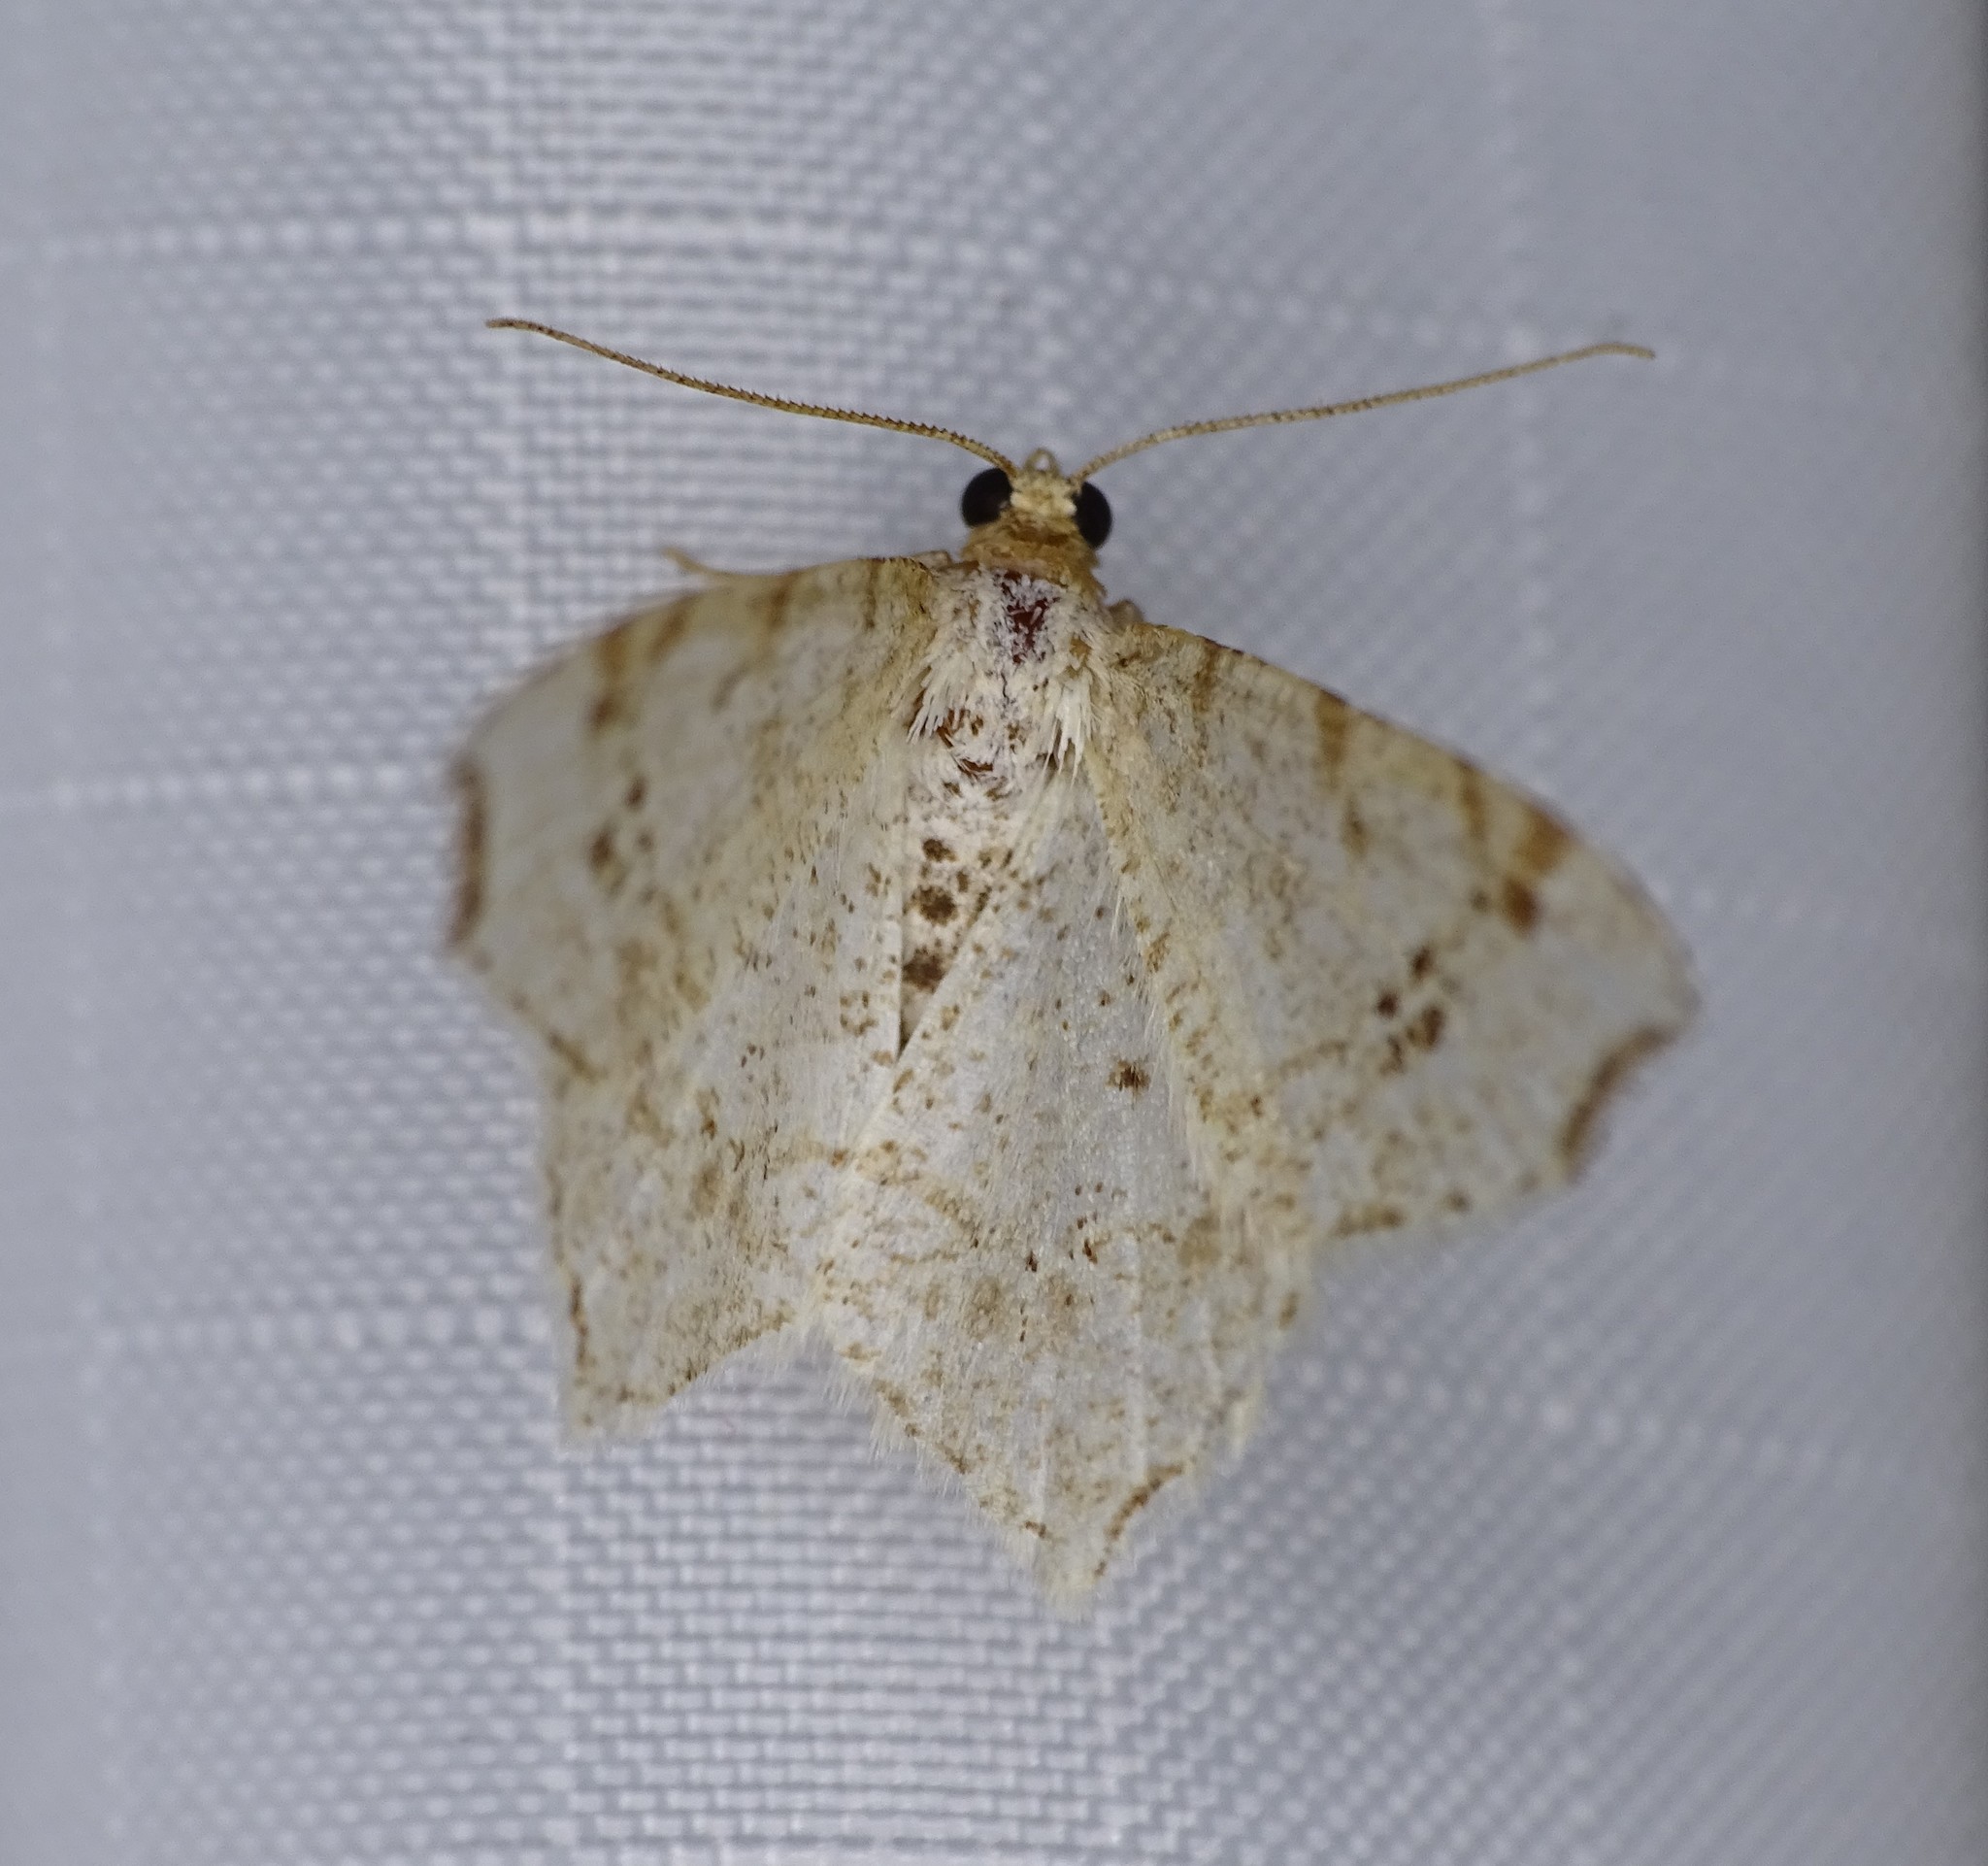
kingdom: Animalia
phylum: Arthropoda
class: Insecta
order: Lepidoptera
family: Geometridae
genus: Macaria
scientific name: Macaria bisignata
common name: Red-headed inchworm
